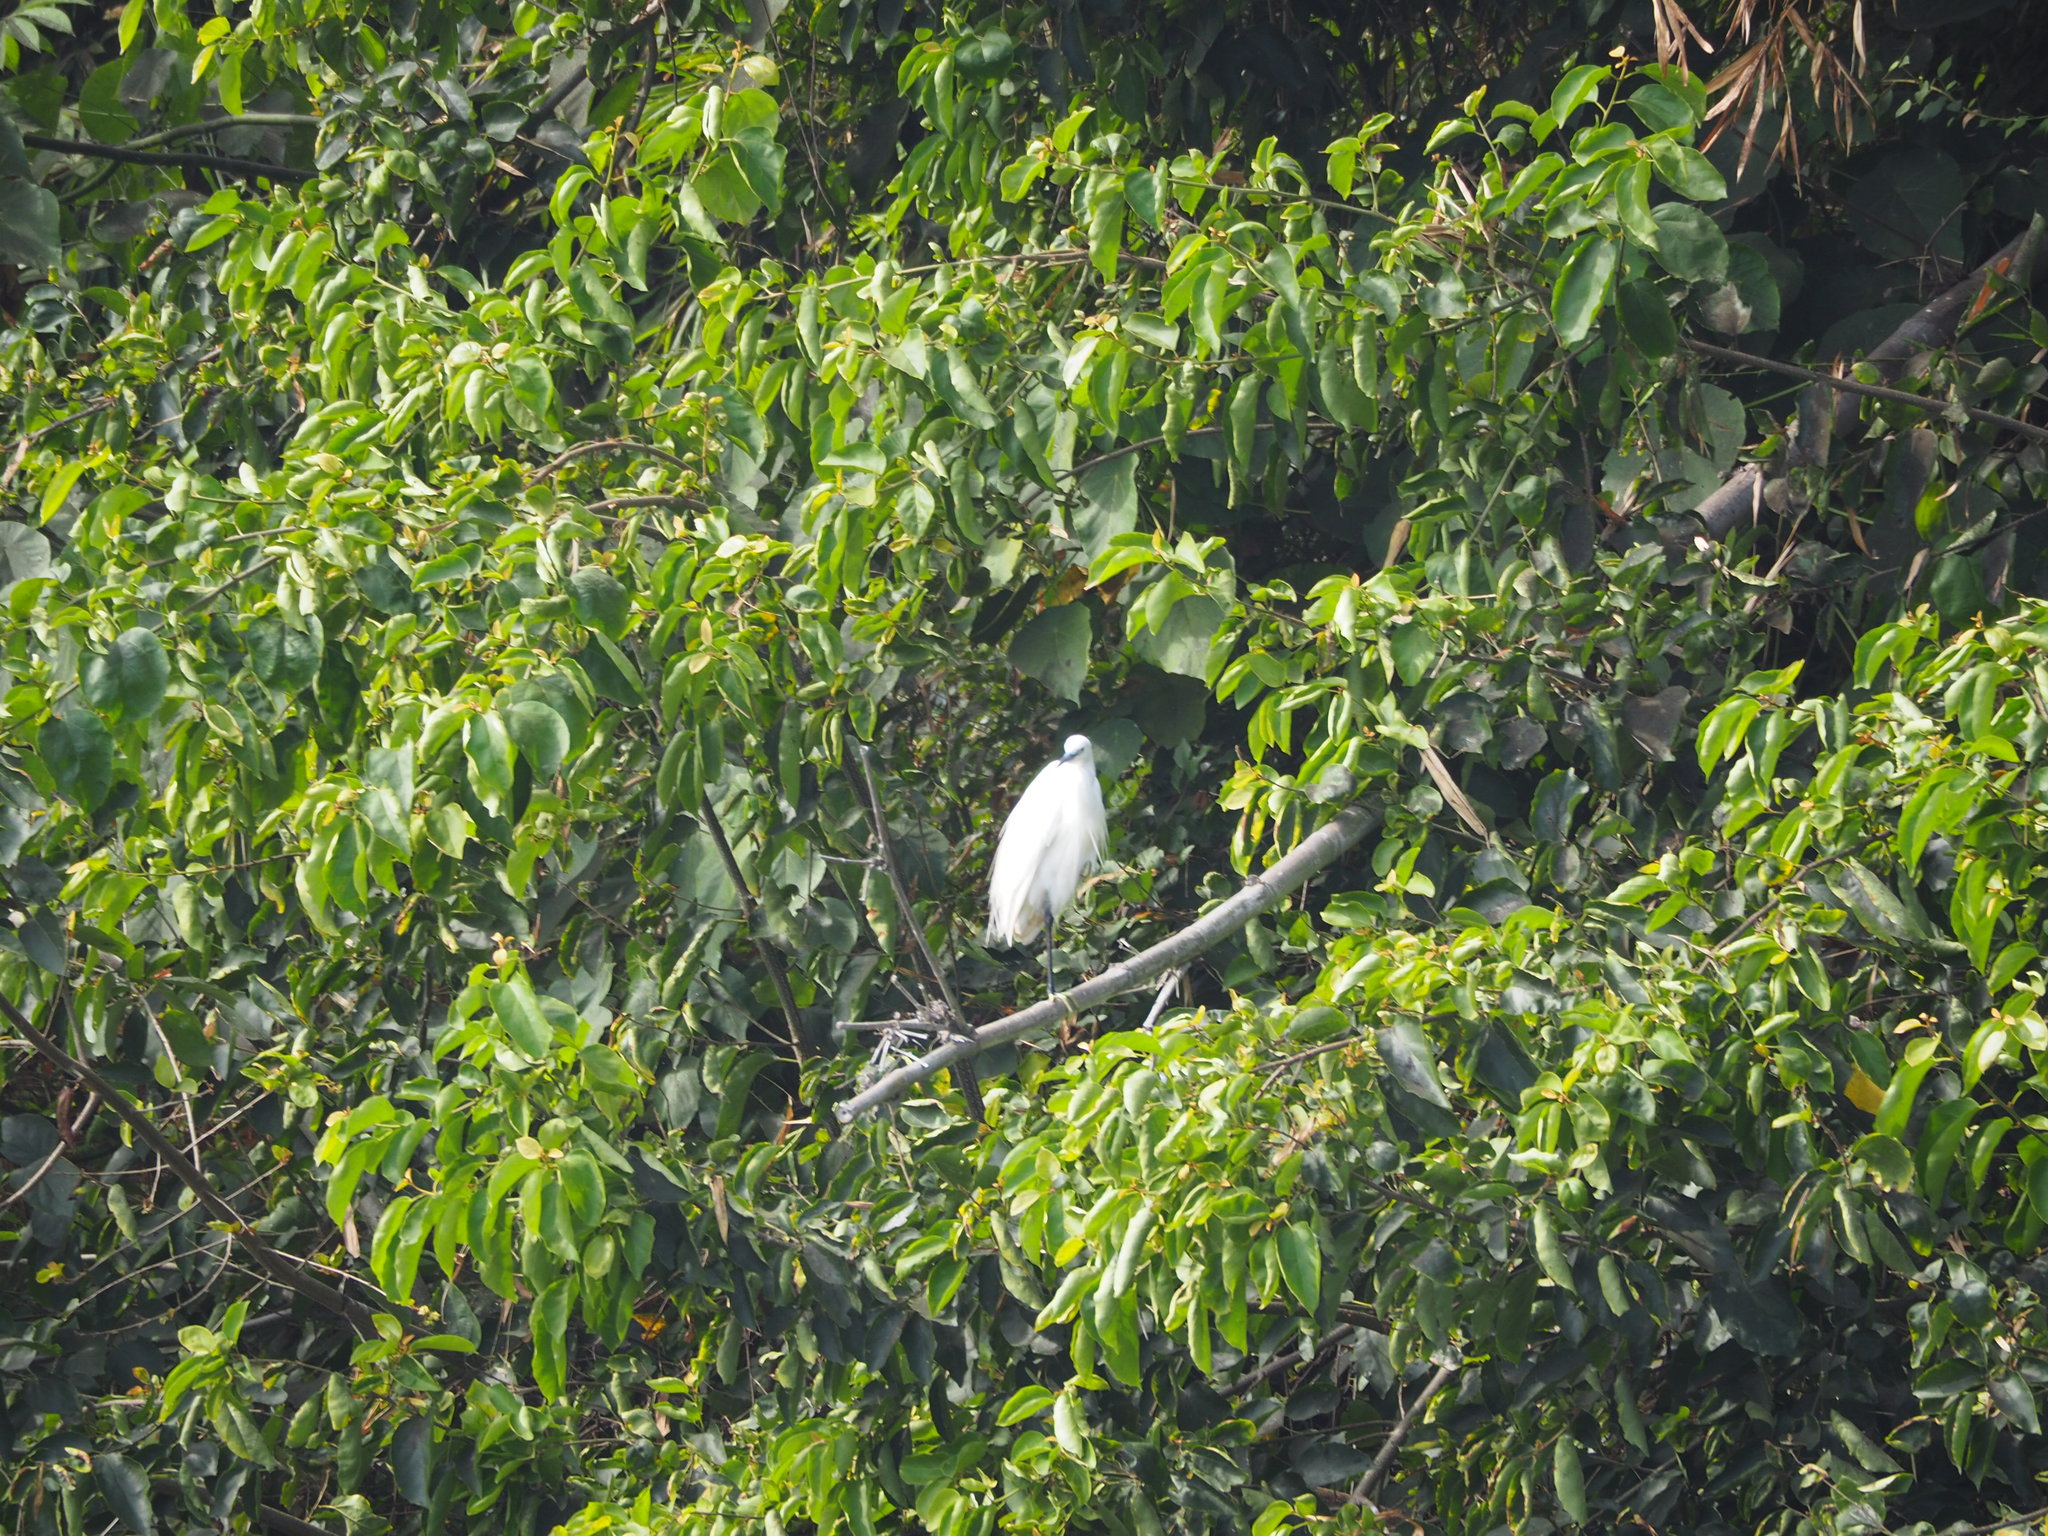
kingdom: Animalia
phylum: Chordata
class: Aves
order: Pelecaniformes
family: Ardeidae
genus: Egretta
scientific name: Egretta garzetta
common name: Little egret
